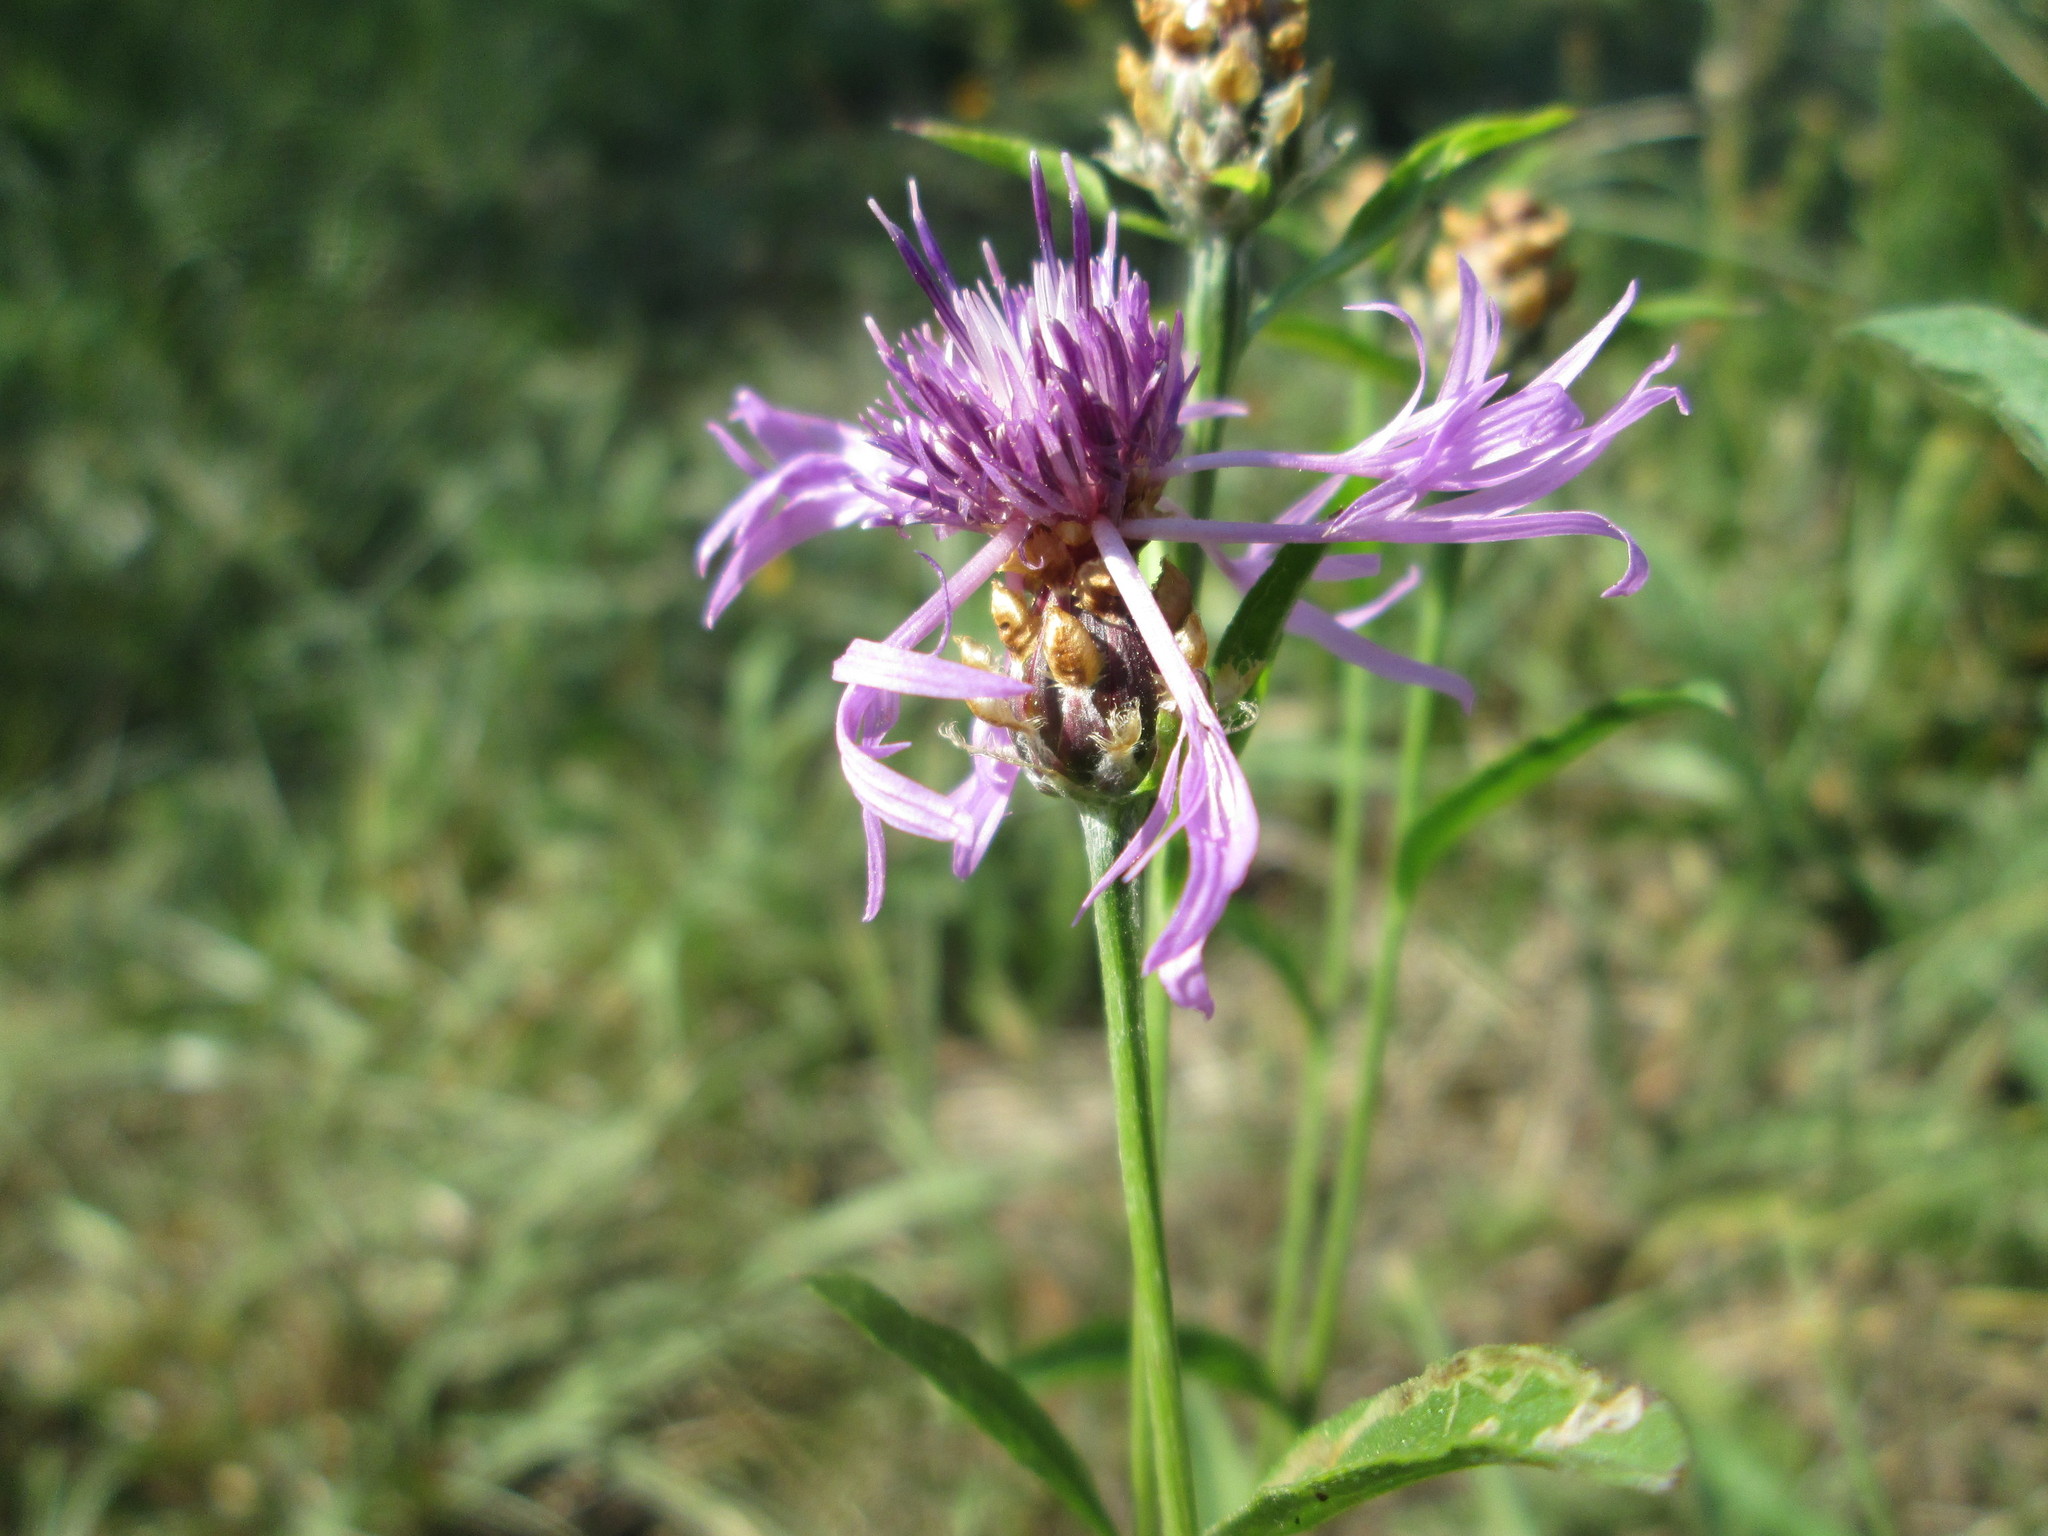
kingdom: Plantae
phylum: Tracheophyta
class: Magnoliopsida
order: Asterales
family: Asteraceae
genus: Centaurea
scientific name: Centaurea jacea
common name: Brown knapweed
